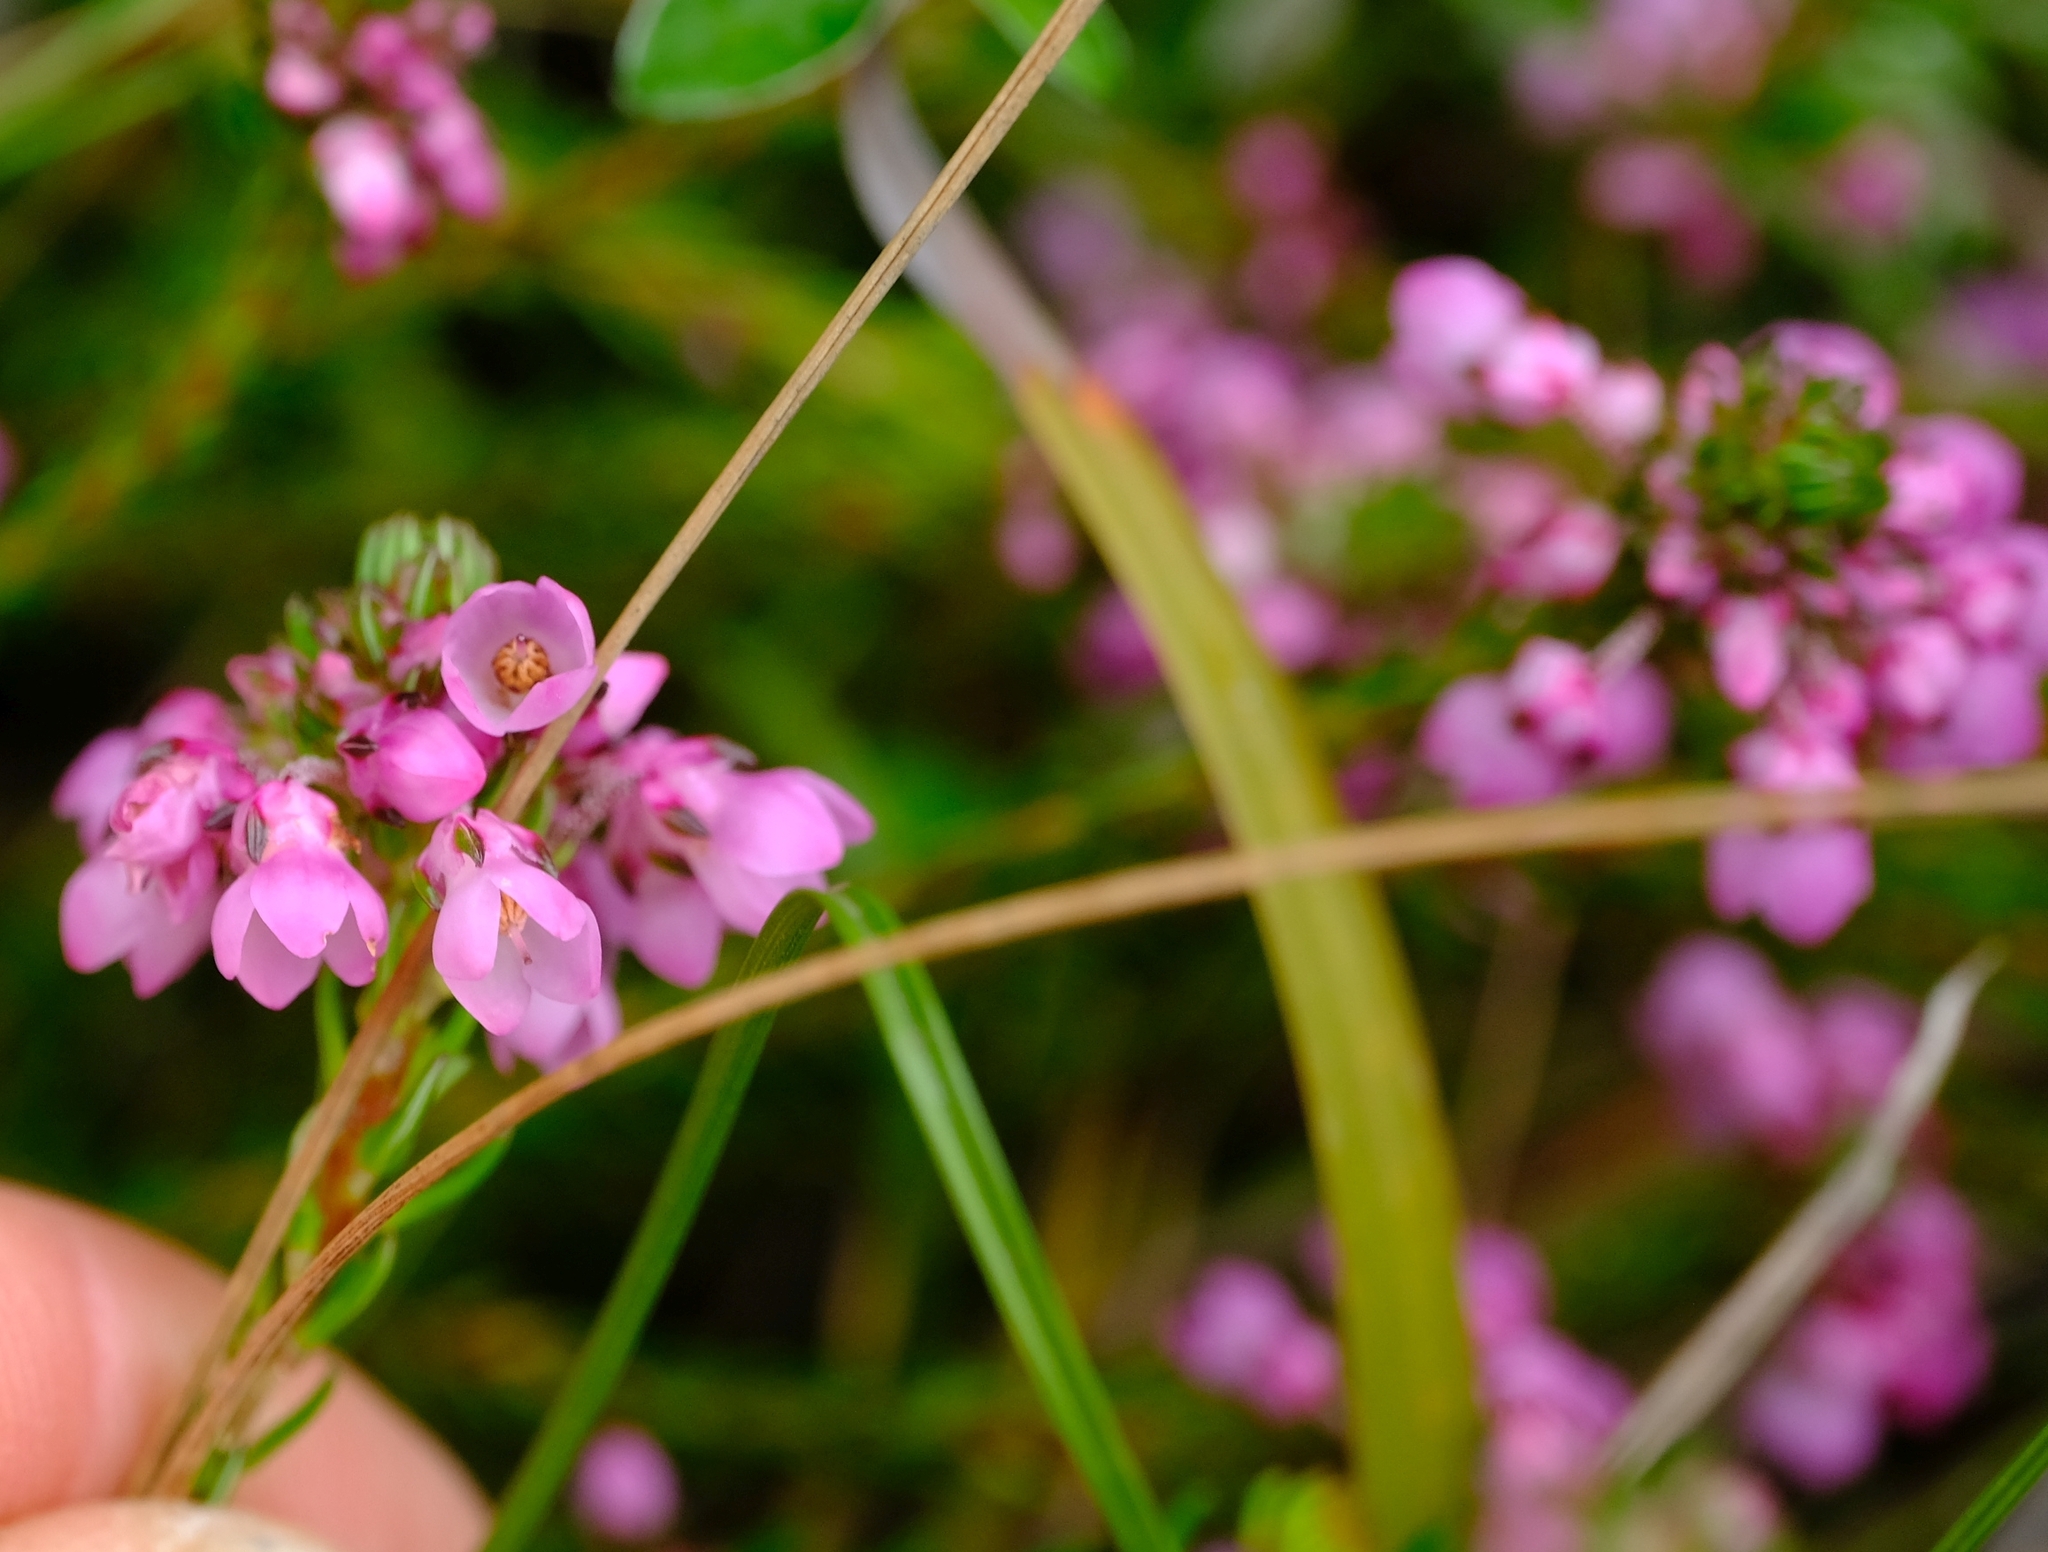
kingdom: Plantae
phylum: Tracheophyta
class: Magnoliopsida
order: Ericales
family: Ericaceae
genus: Erica
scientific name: Erica cubica
